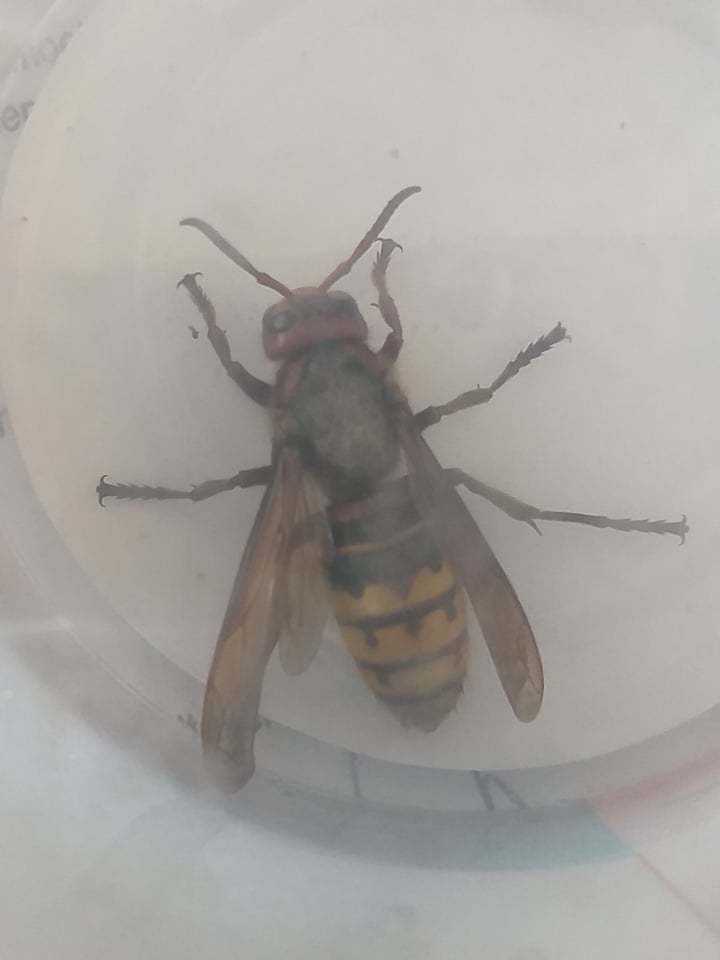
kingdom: Animalia
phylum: Arthropoda
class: Insecta
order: Hymenoptera
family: Vespidae
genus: Vespa
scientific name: Vespa crabro
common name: Hornet
